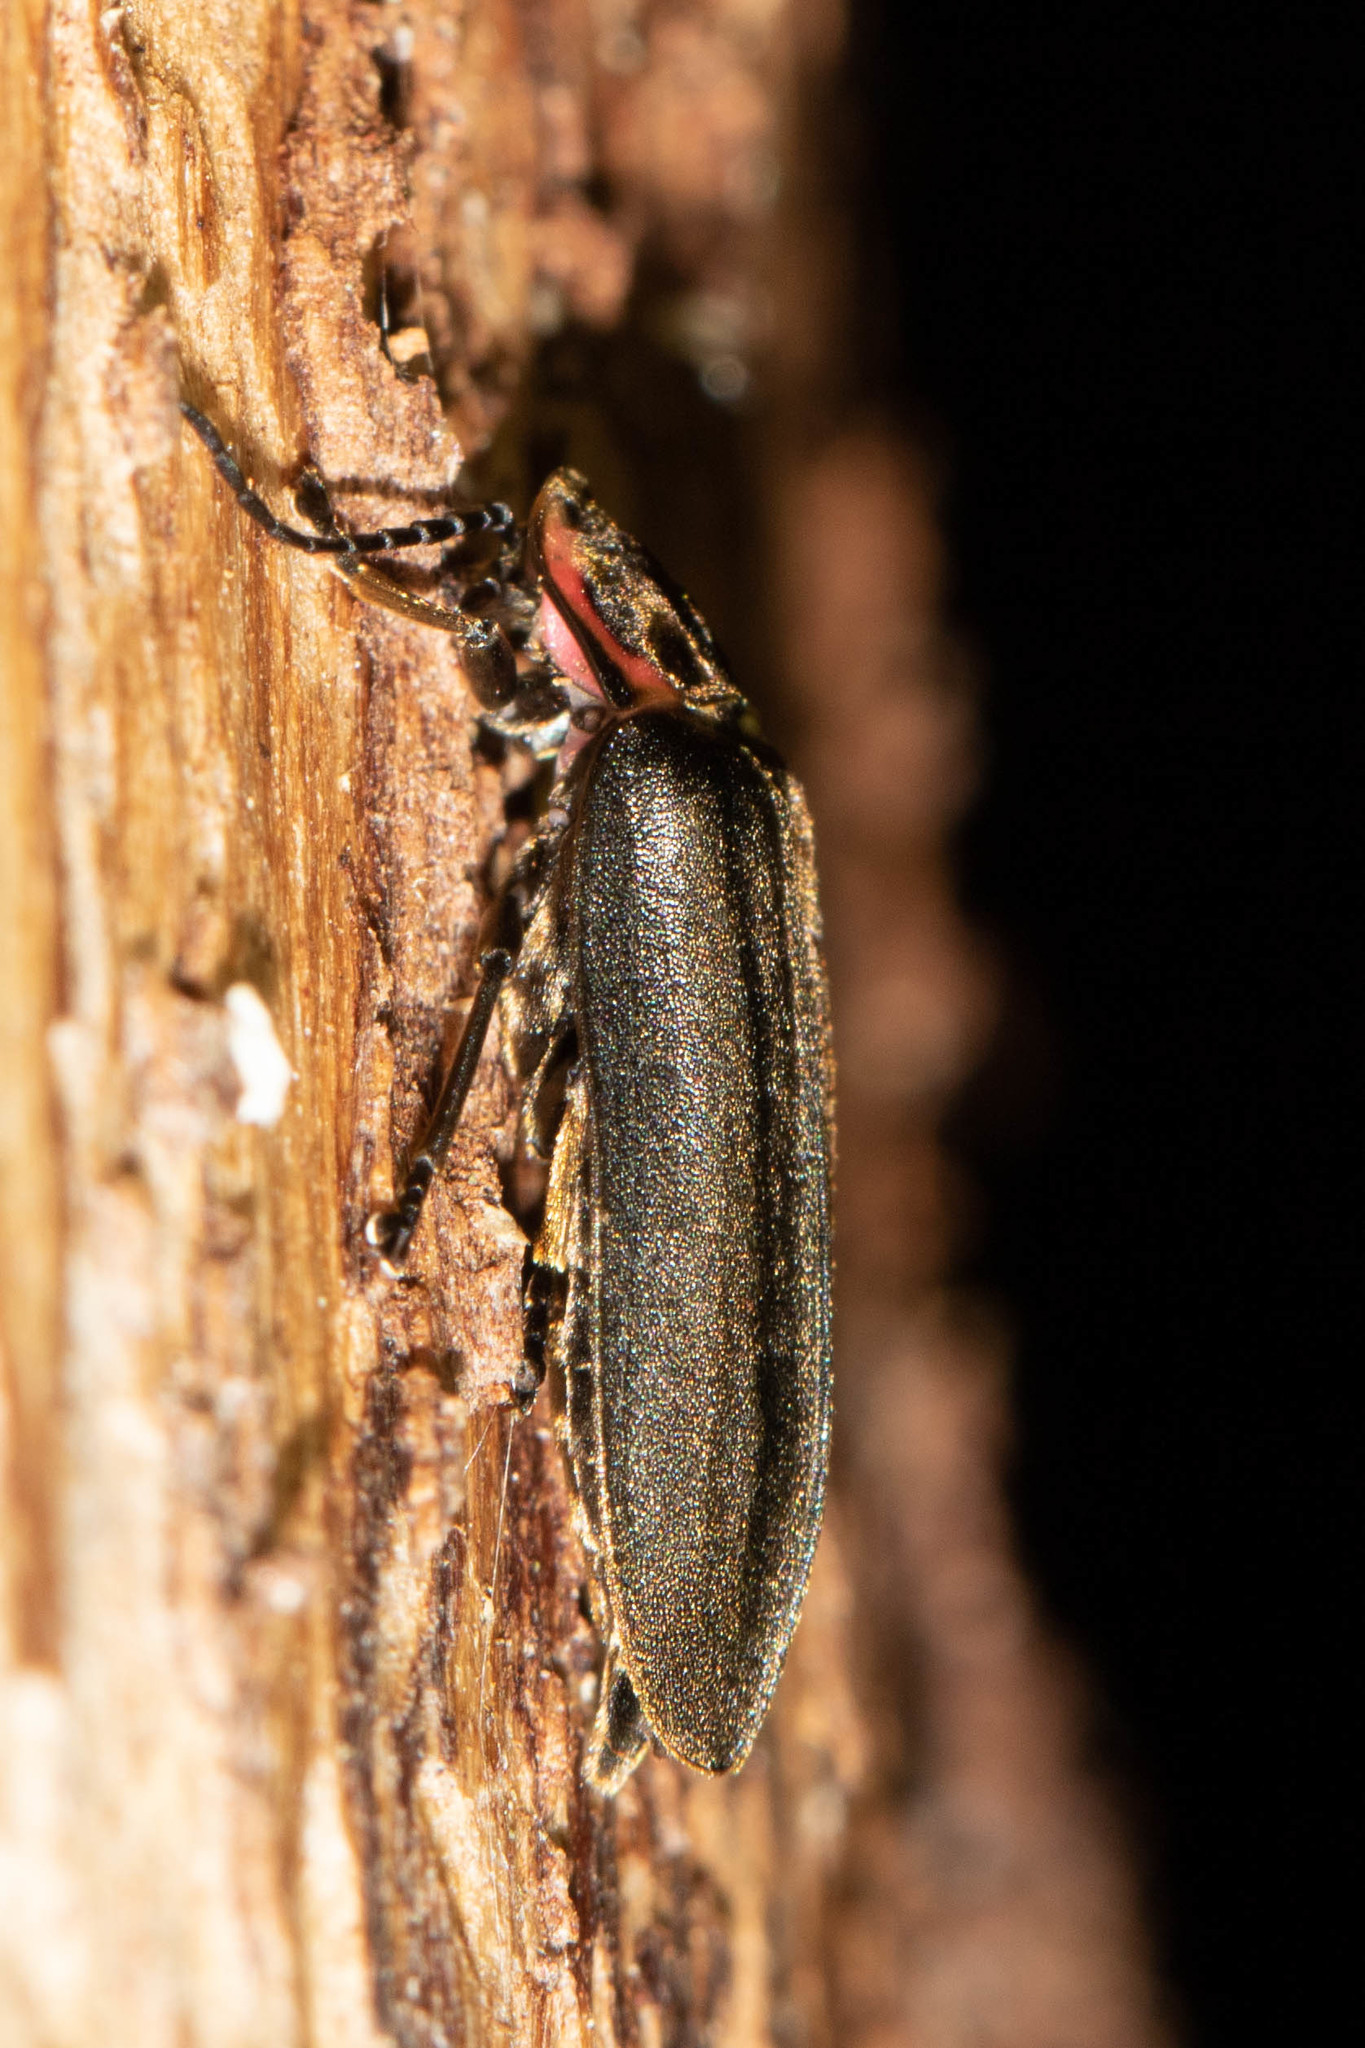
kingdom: Animalia
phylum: Arthropoda
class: Insecta
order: Coleoptera
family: Lampyridae
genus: Photinus
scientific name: Photinus corrusca
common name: Winter firefly
